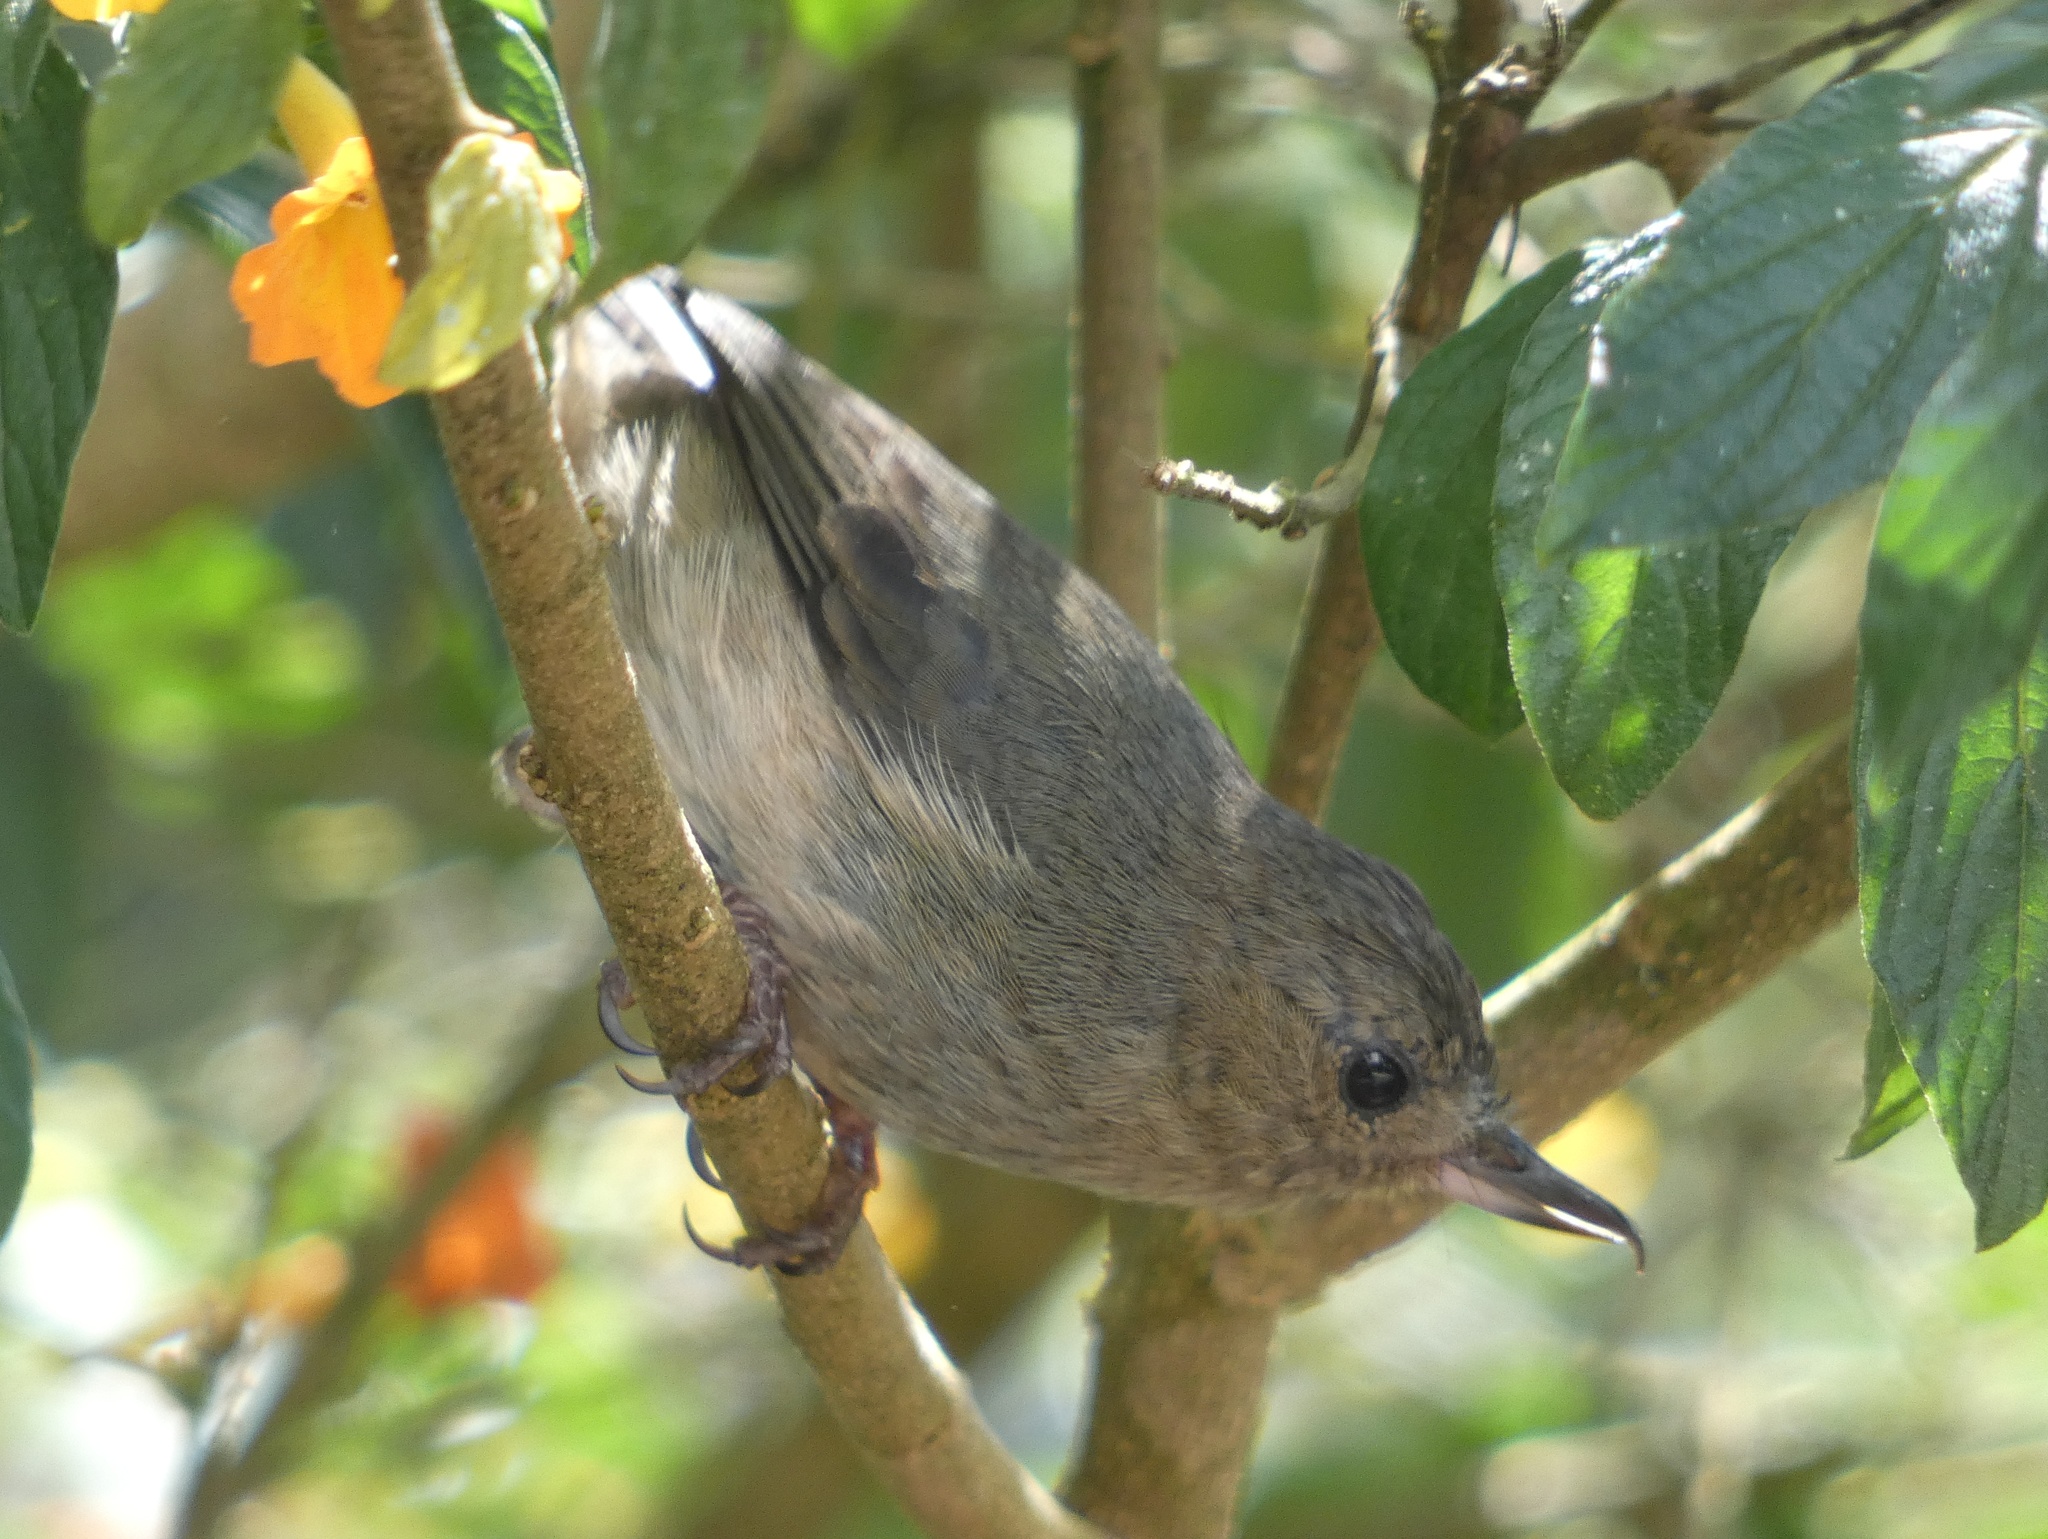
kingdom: Animalia
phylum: Chordata
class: Aves
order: Passeriformes
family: Thraupidae
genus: Diglossa
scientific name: Diglossa plumbea
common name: Slaty flowerpiercer
